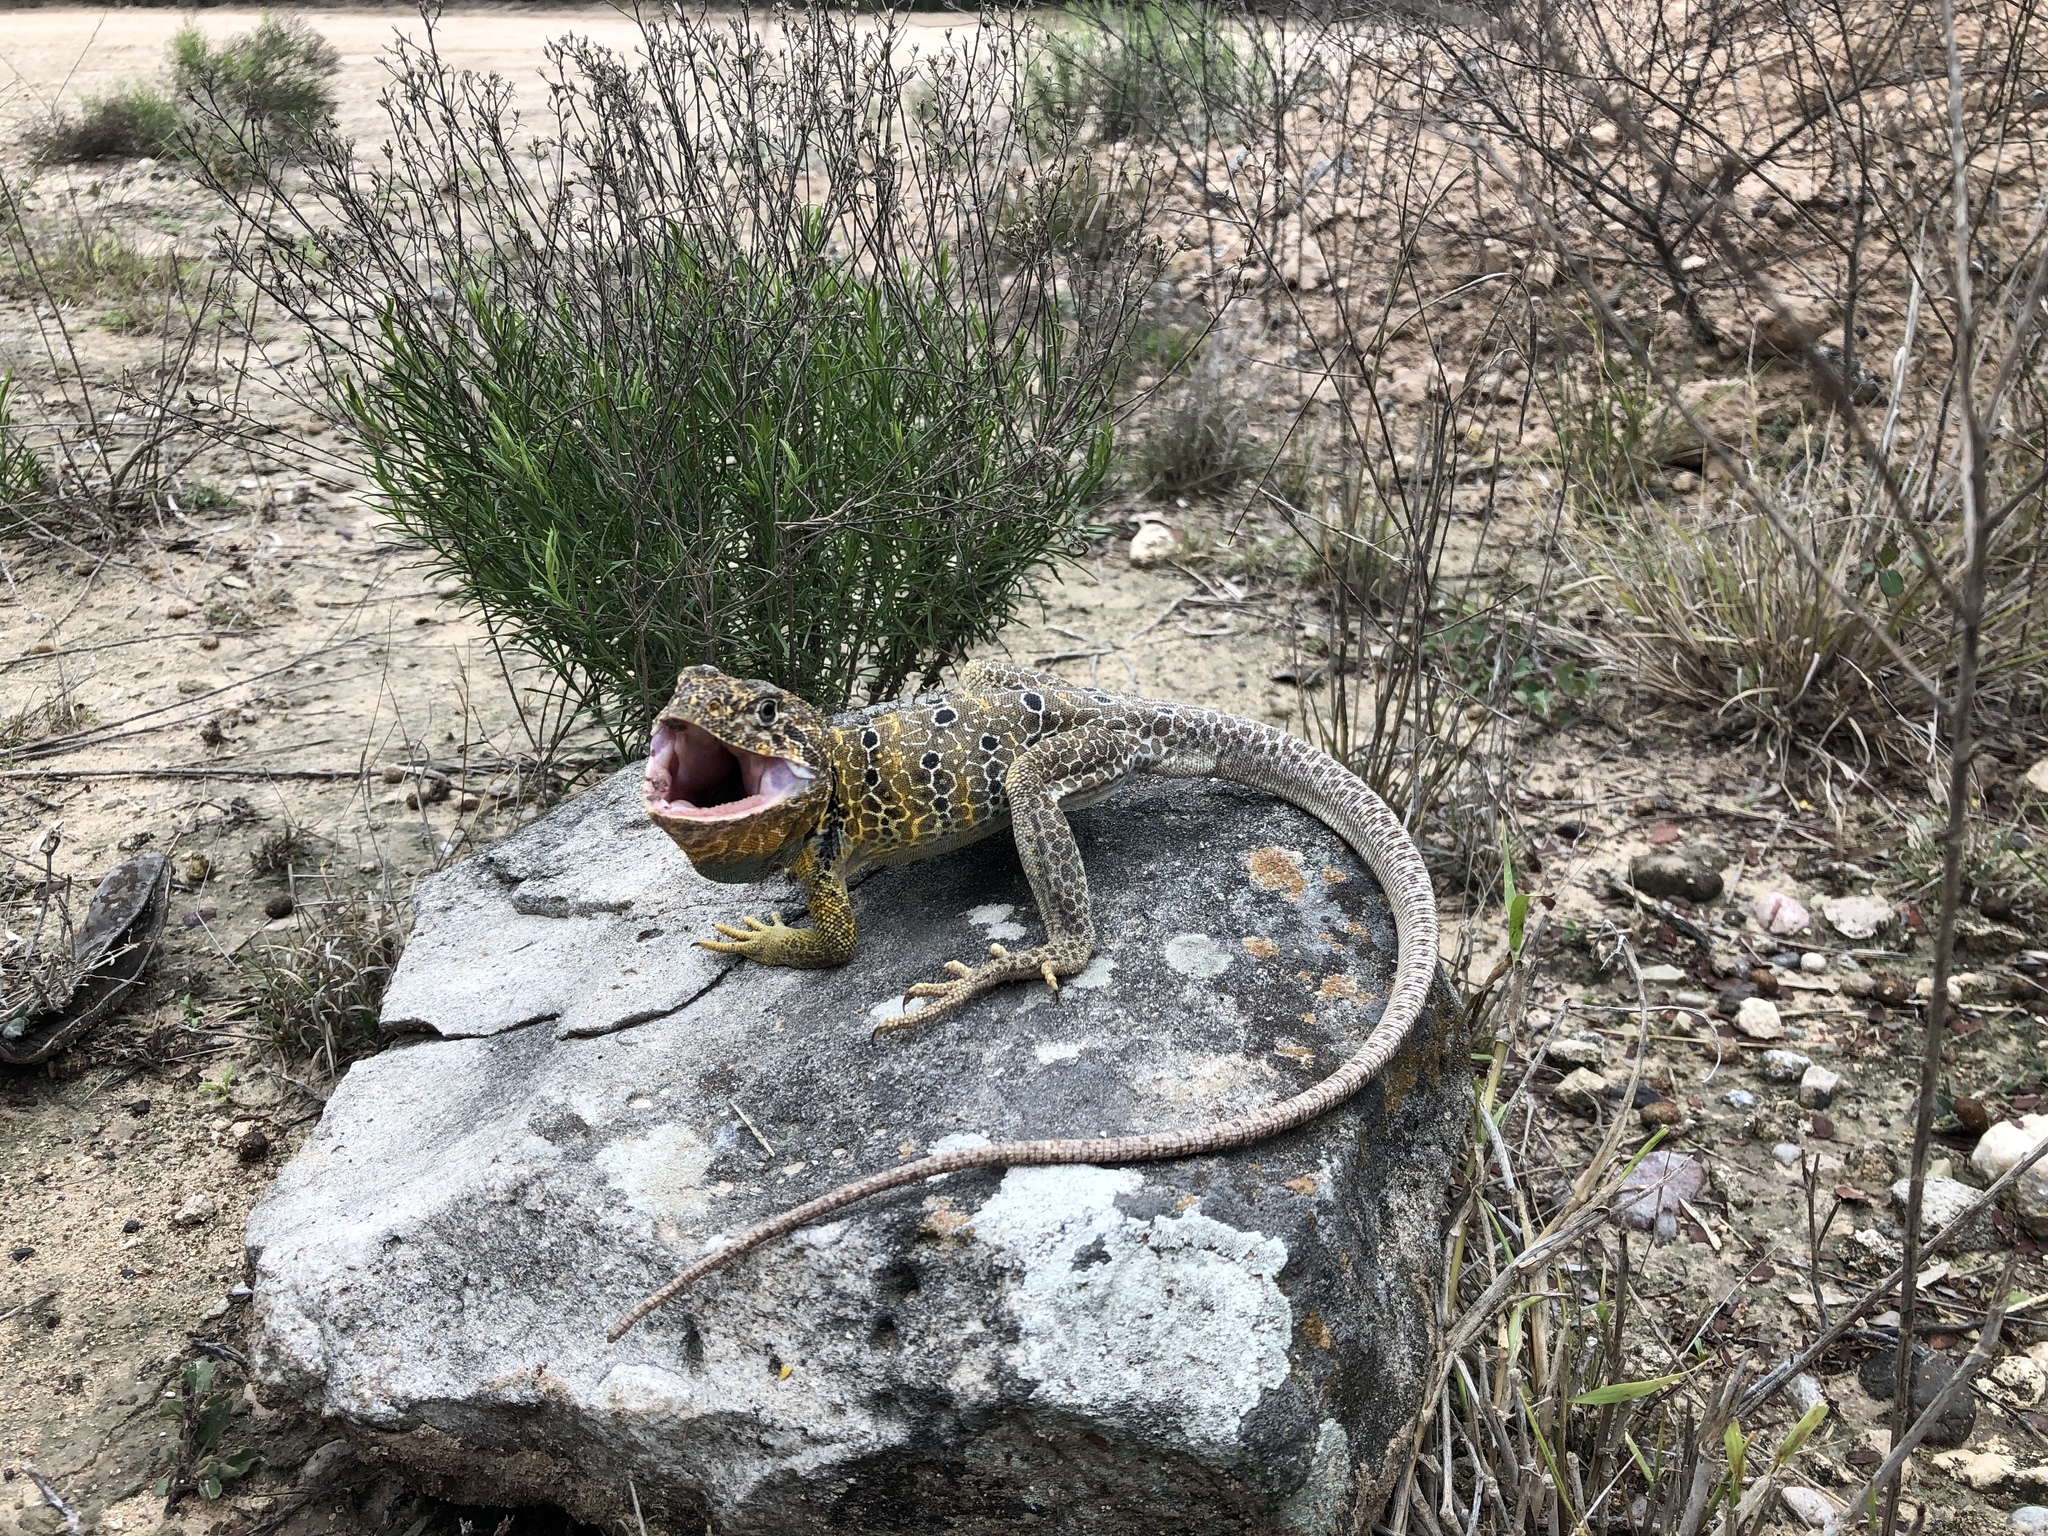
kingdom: Animalia
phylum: Chordata
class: Squamata
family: Crotaphytidae
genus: Crotaphytus
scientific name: Crotaphytus reticulatus
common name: Reticulate collared lizard
